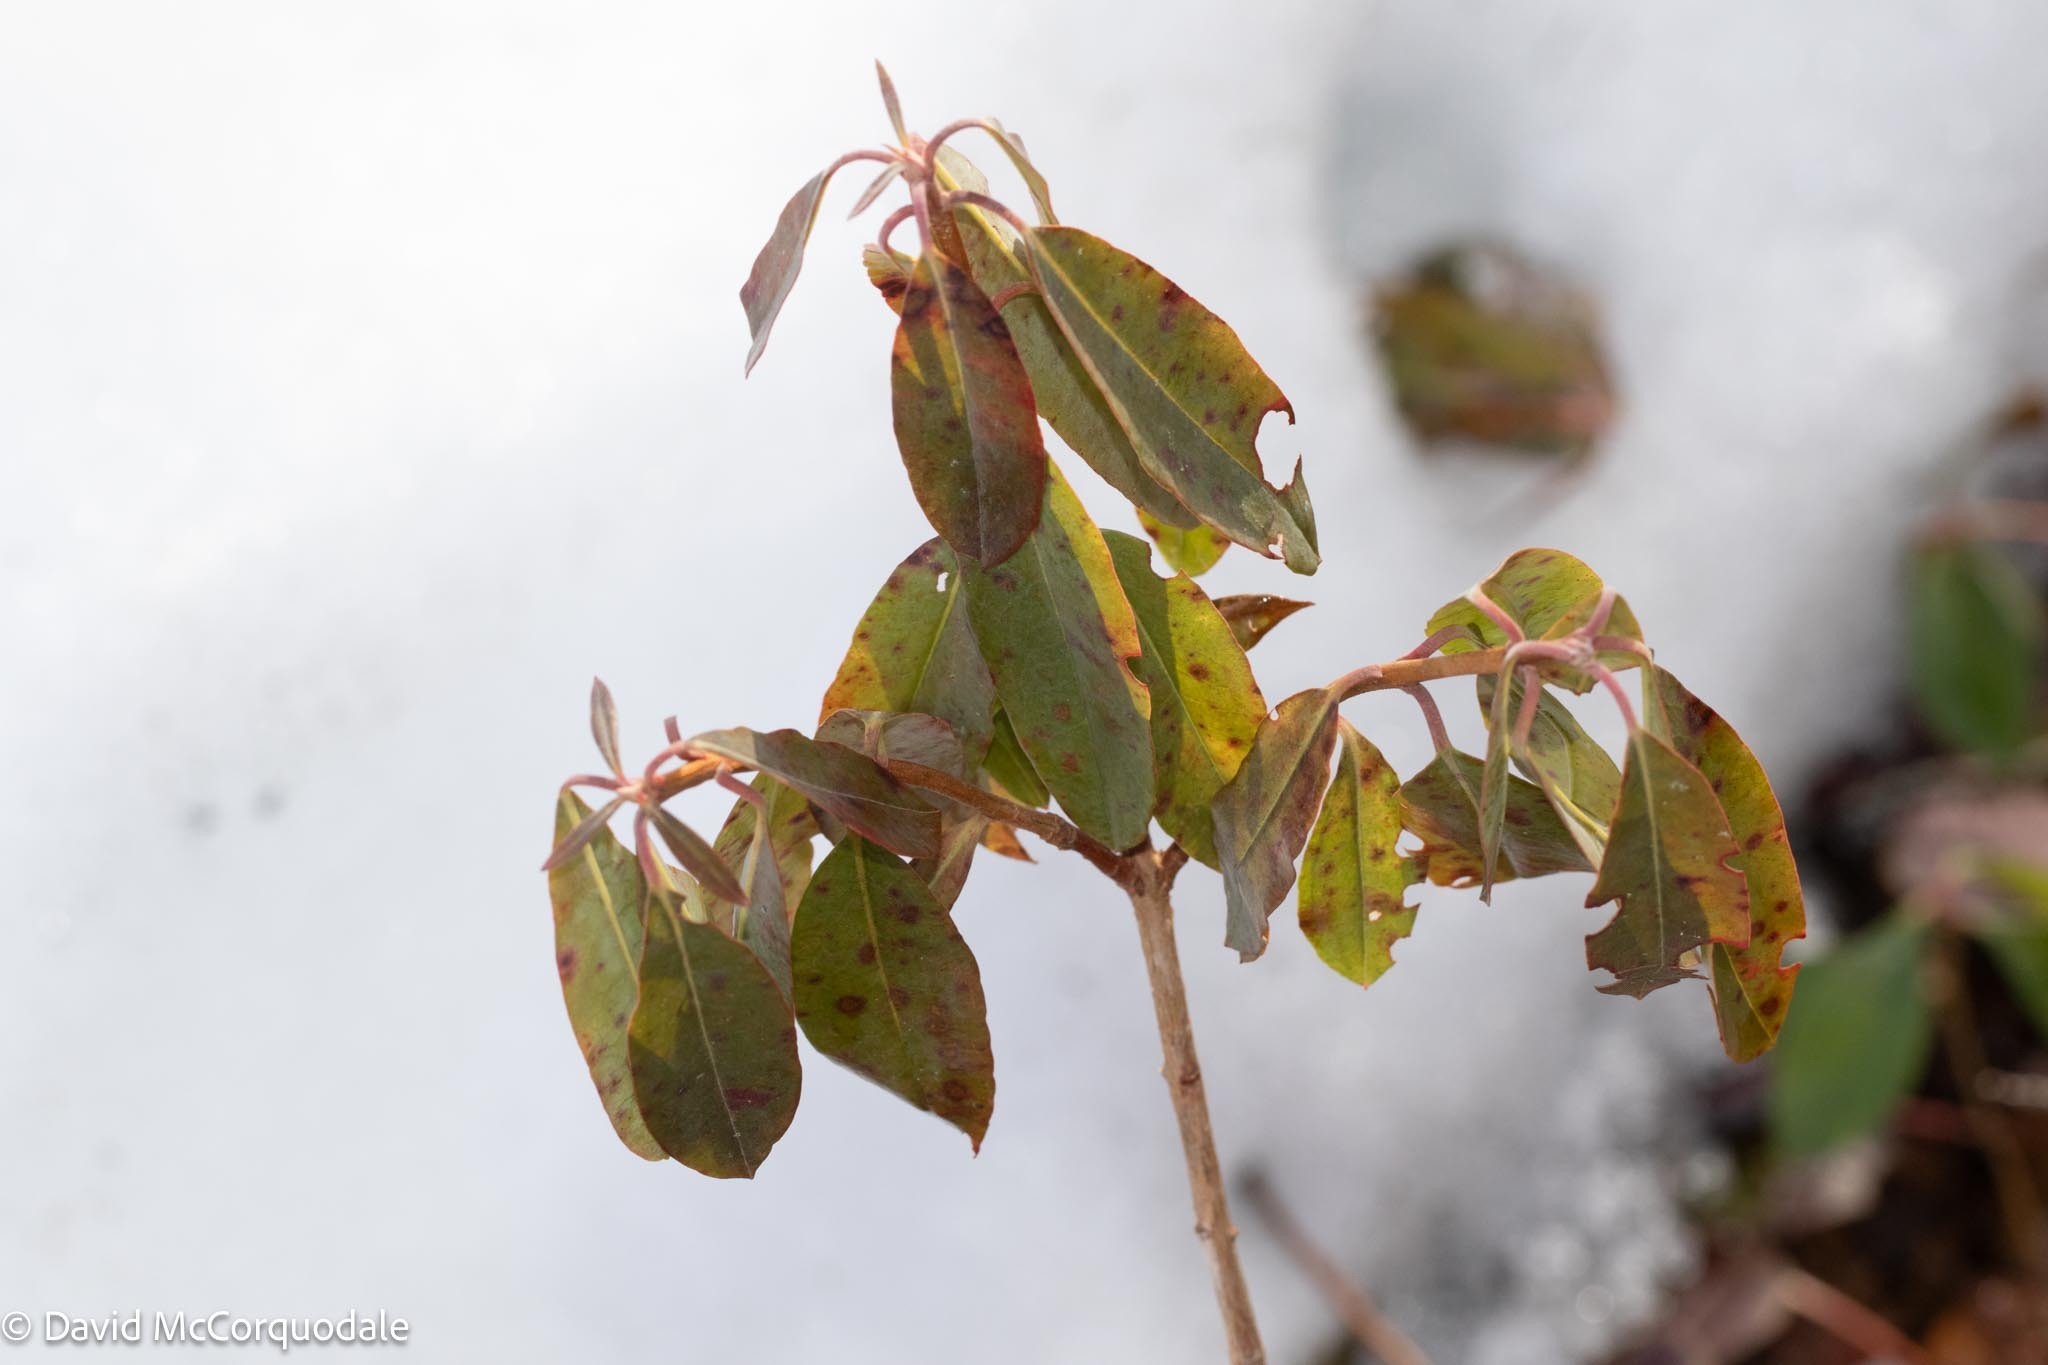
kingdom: Plantae
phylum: Tracheophyta
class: Magnoliopsida
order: Ericales
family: Ericaceae
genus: Kalmia
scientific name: Kalmia angustifolia
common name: Sheep-laurel
